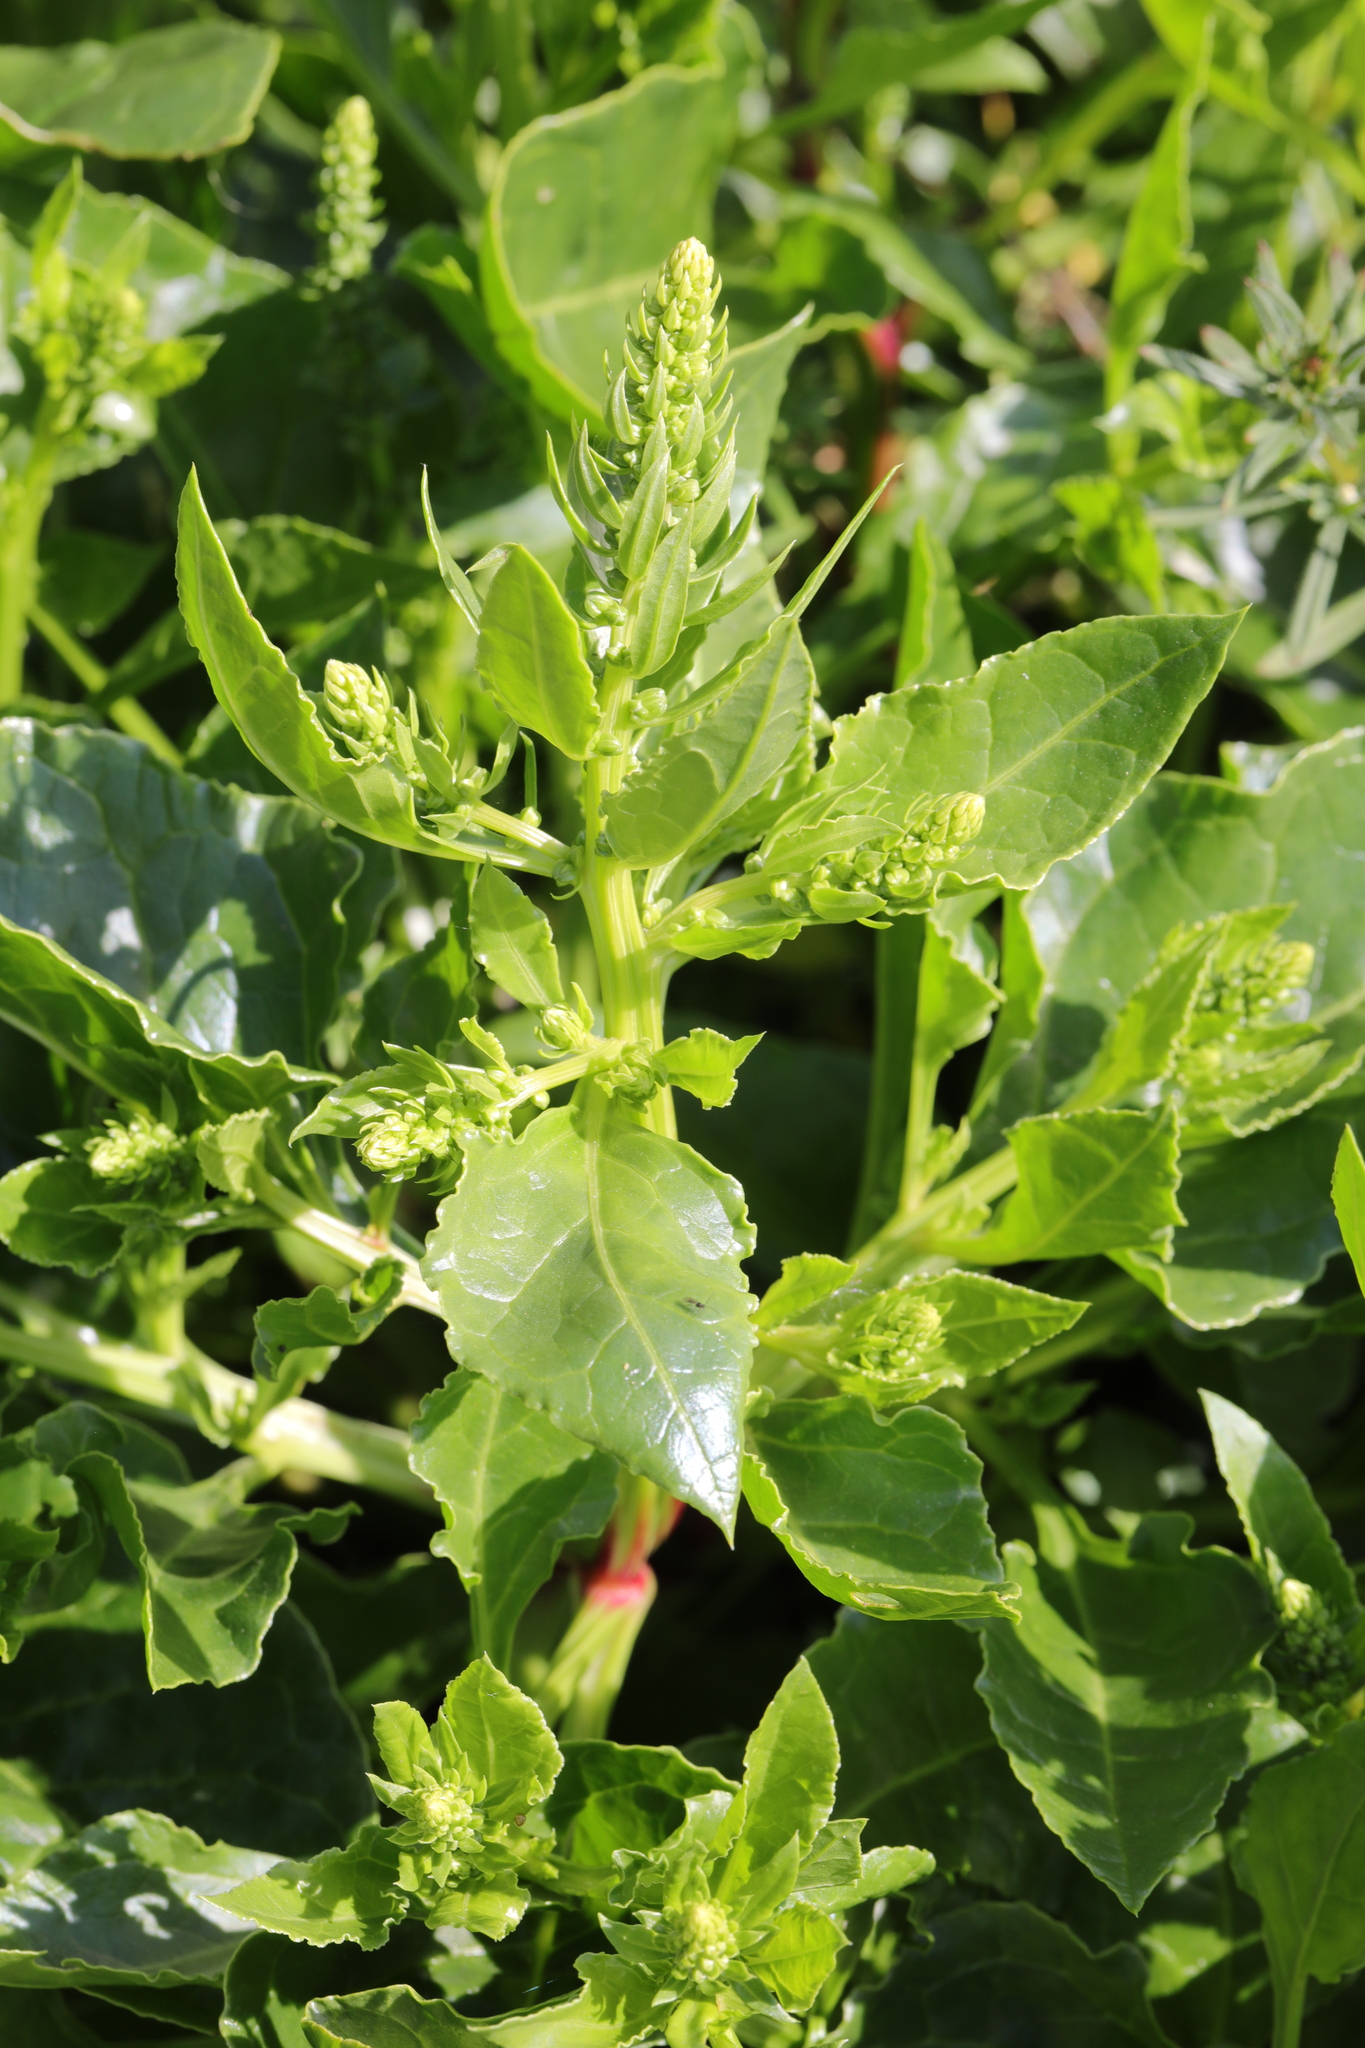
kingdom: Plantae
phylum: Tracheophyta
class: Magnoliopsida
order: Caryophyllales
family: Amaranthaceae
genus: Beta
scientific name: Beta vulgaris
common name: Beet
